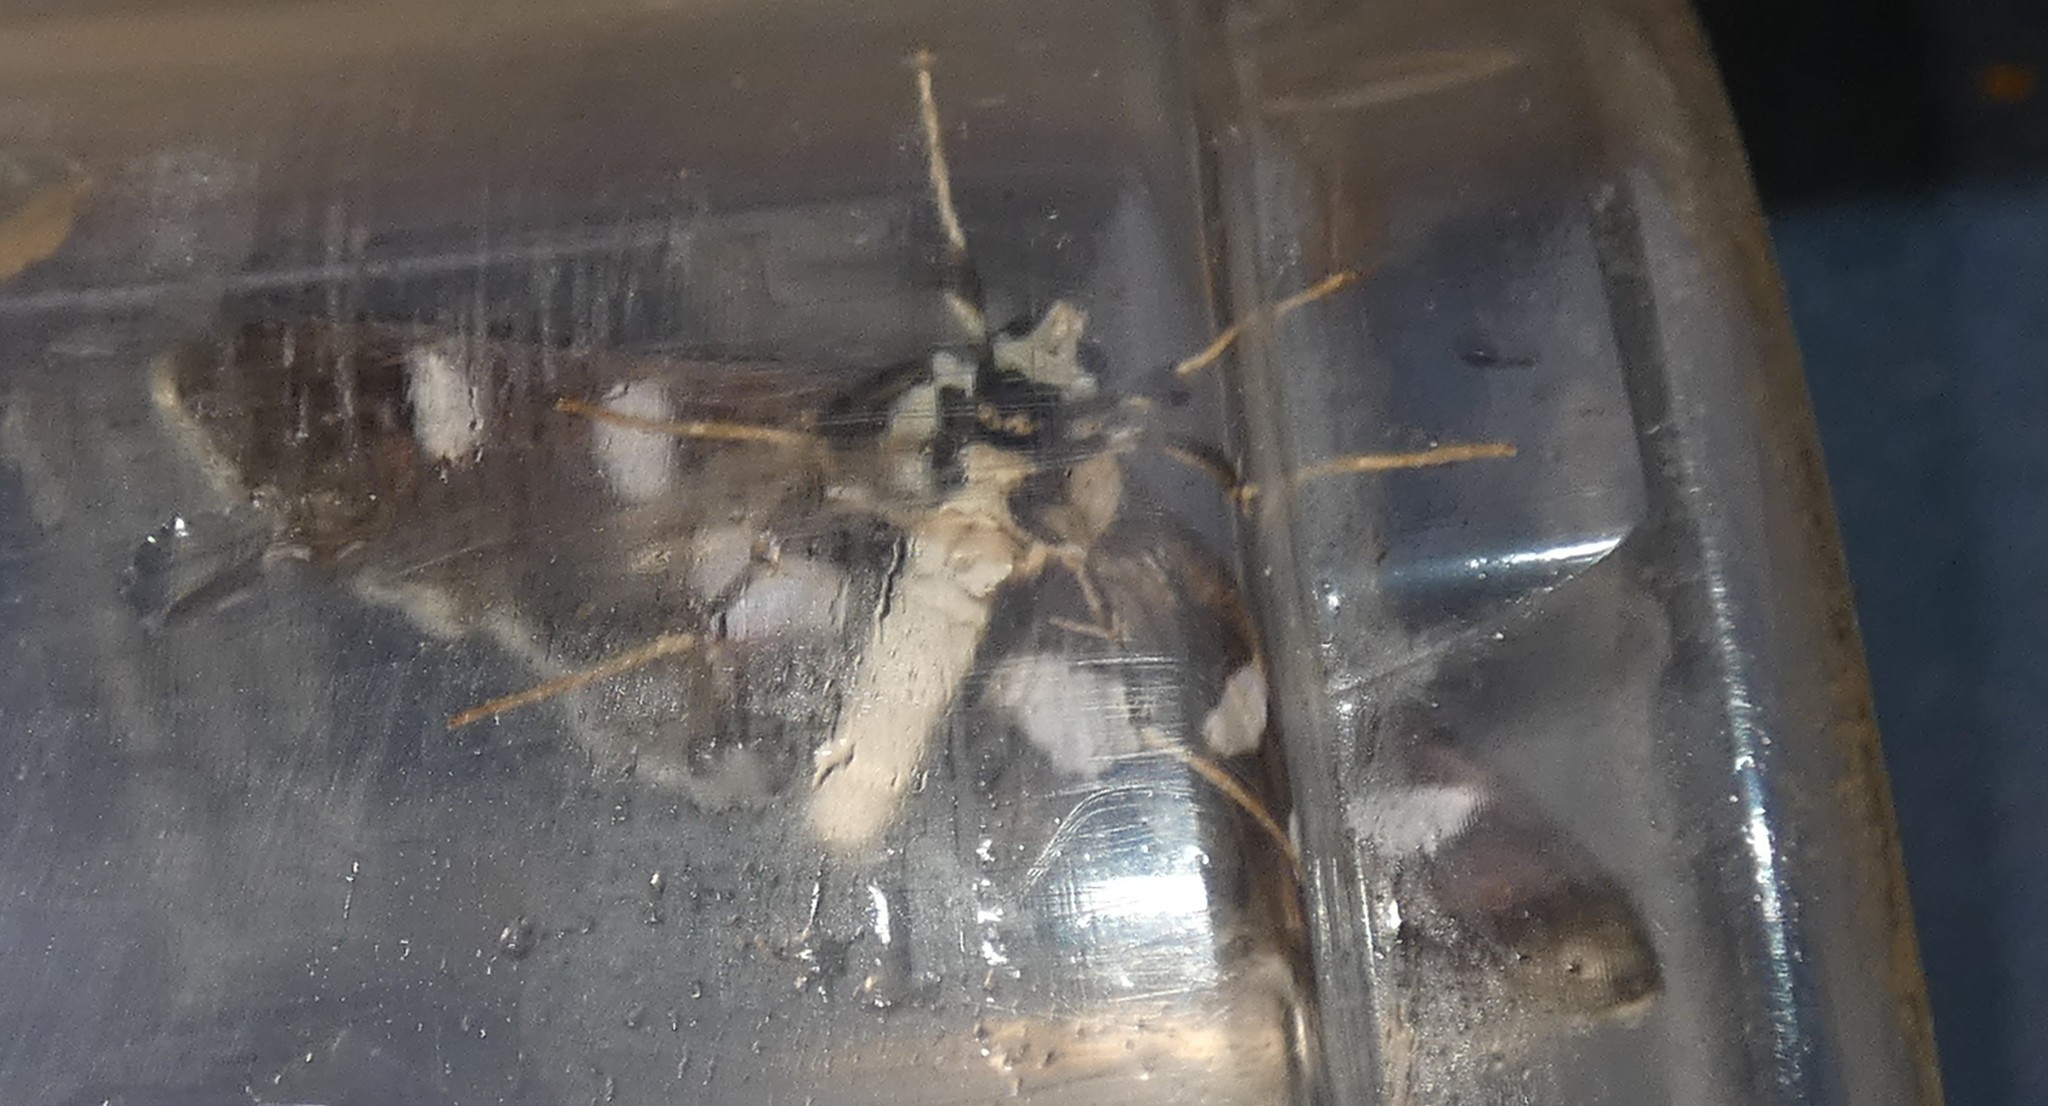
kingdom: Animalia
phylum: Arthropoda
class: Insecta
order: Lepidoptera
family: Crambidae
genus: Desmia
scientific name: Desmia funeralis
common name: Grape leaf folder moth
